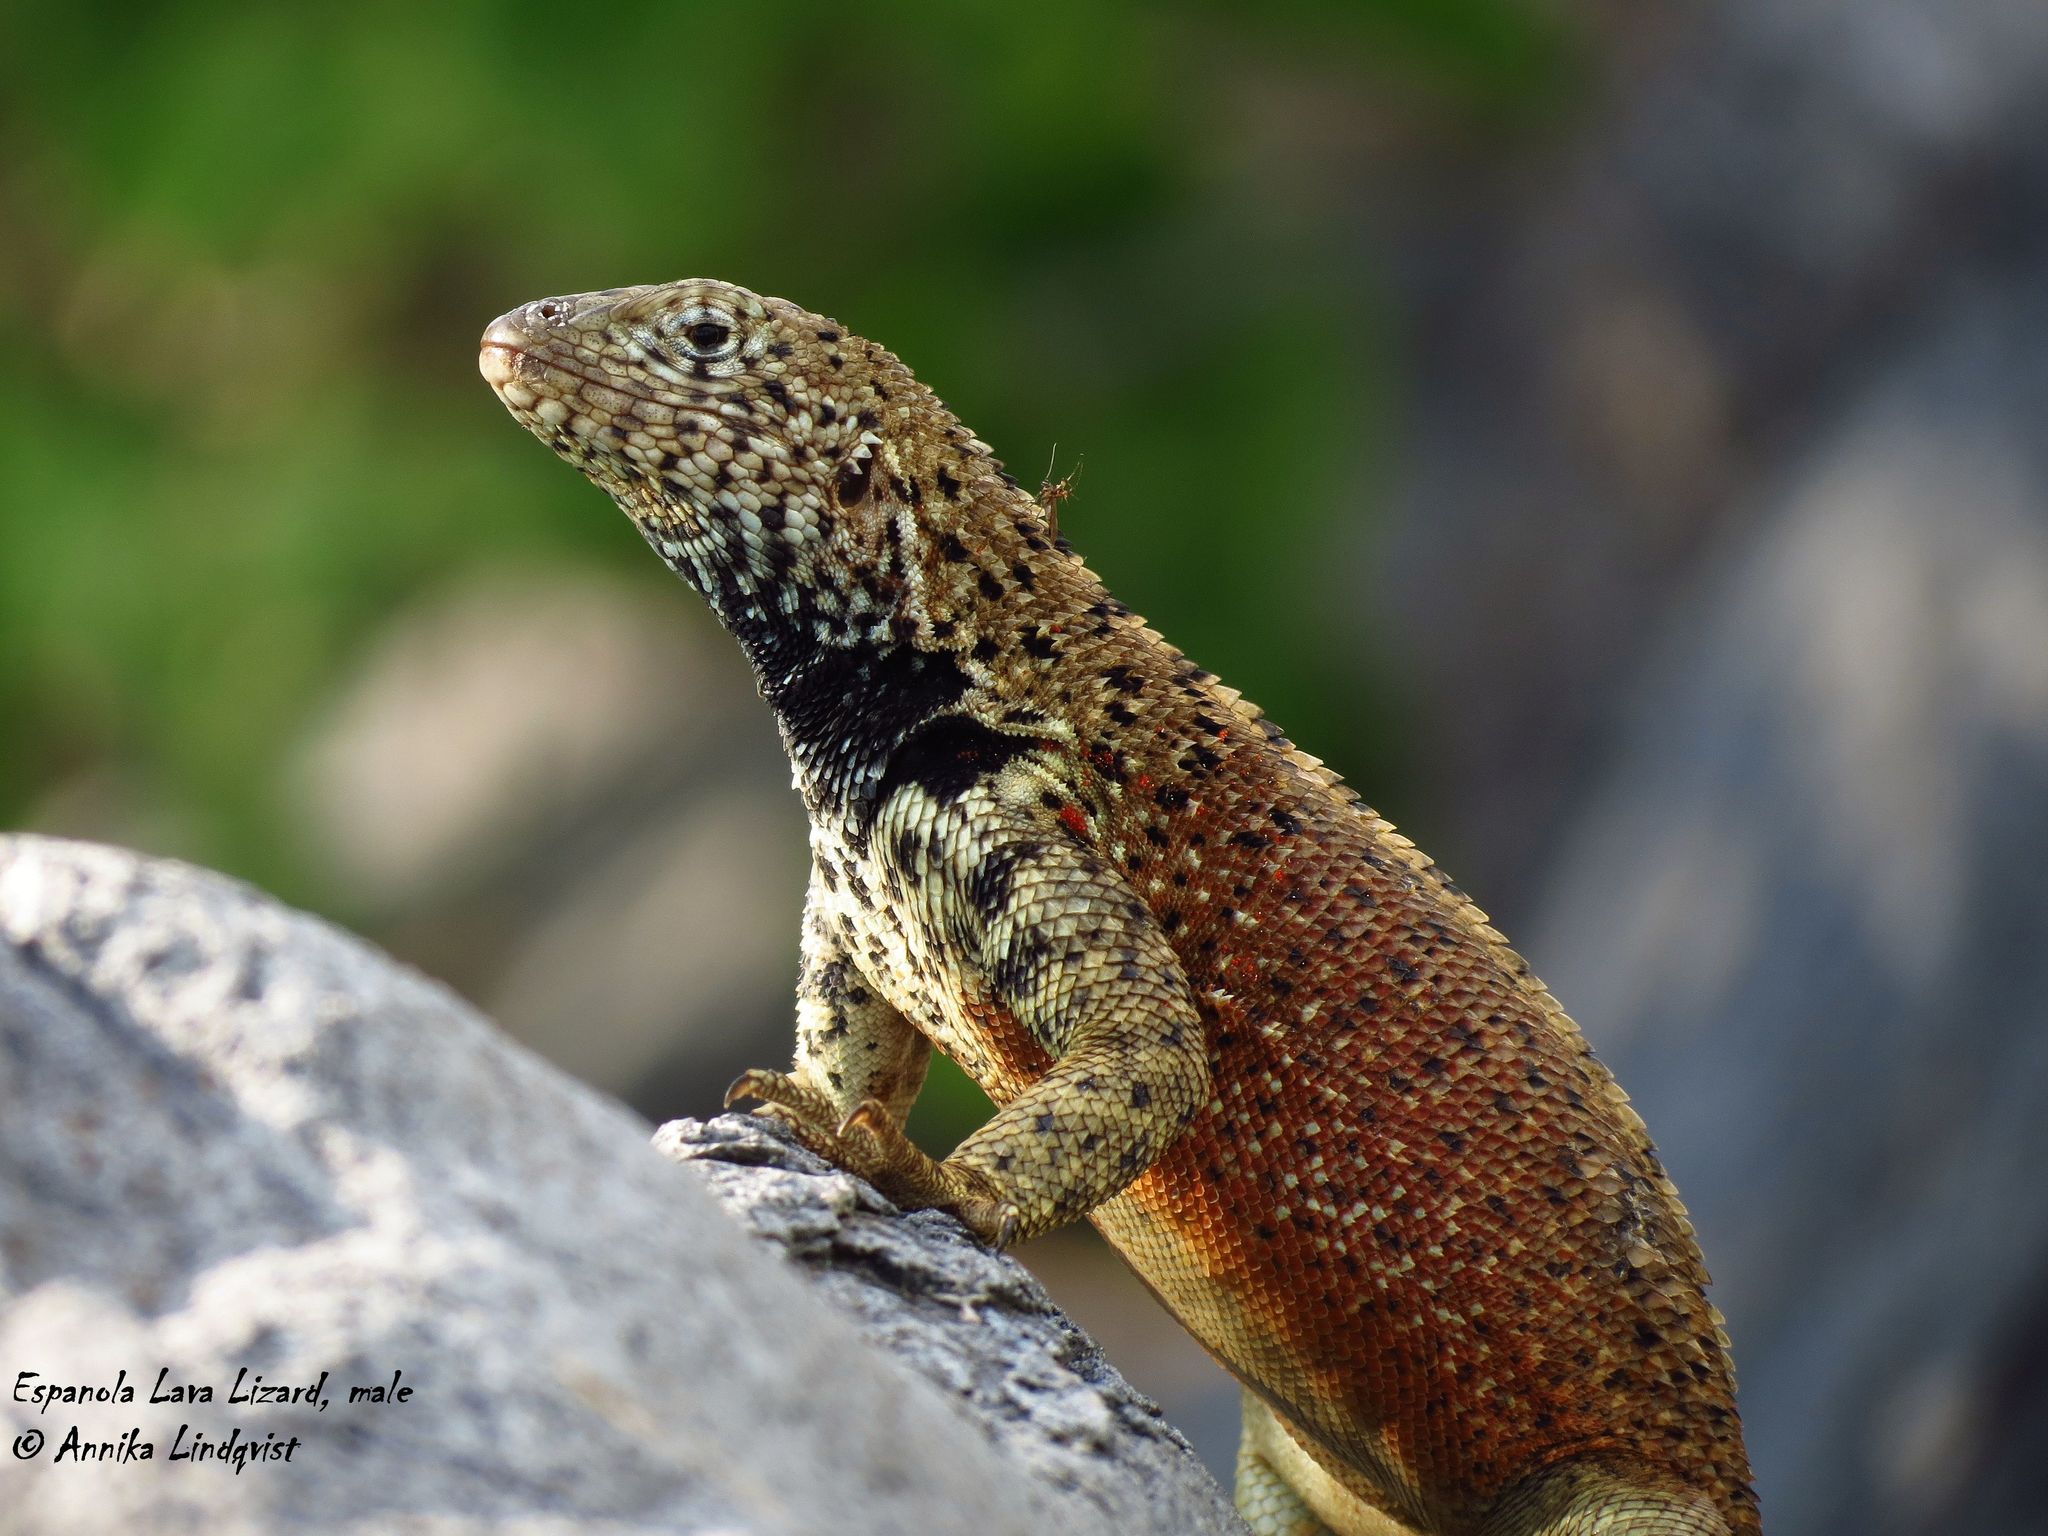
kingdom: Animalia
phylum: Chordata
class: Squamata
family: Tropiduridae
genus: Microlophus
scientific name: Microlophus delanonis
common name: Hood lava lizard
